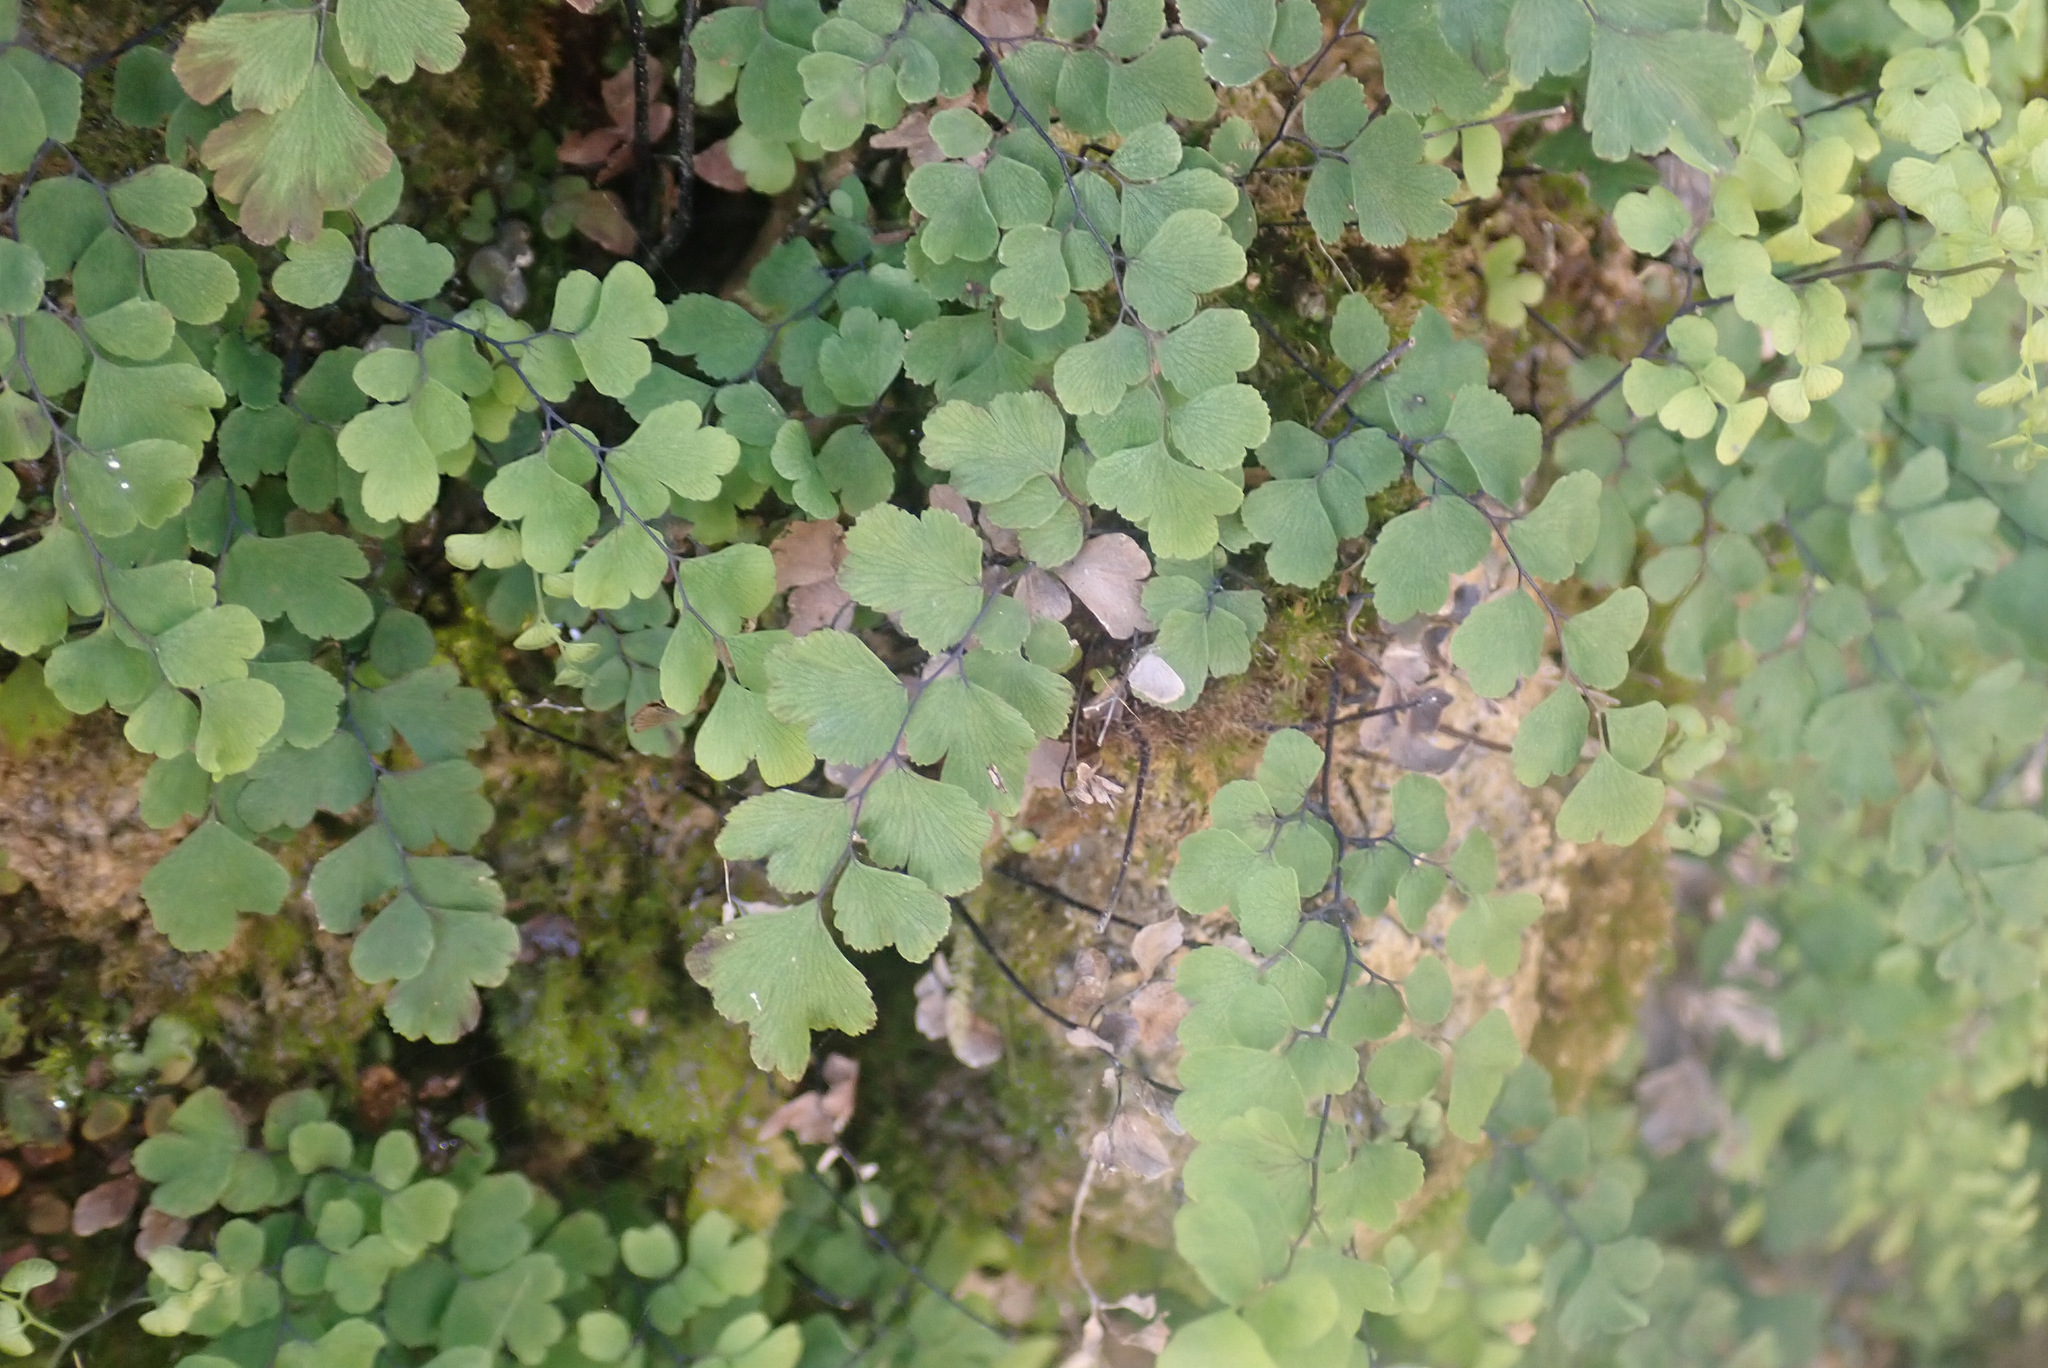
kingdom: Plantae
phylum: Tracheophyta
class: Polypodiopsida
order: Polypodiales
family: Pteridaceae
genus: Adiantum
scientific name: Adiantum capillus-veneris
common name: Maidenhair fern
